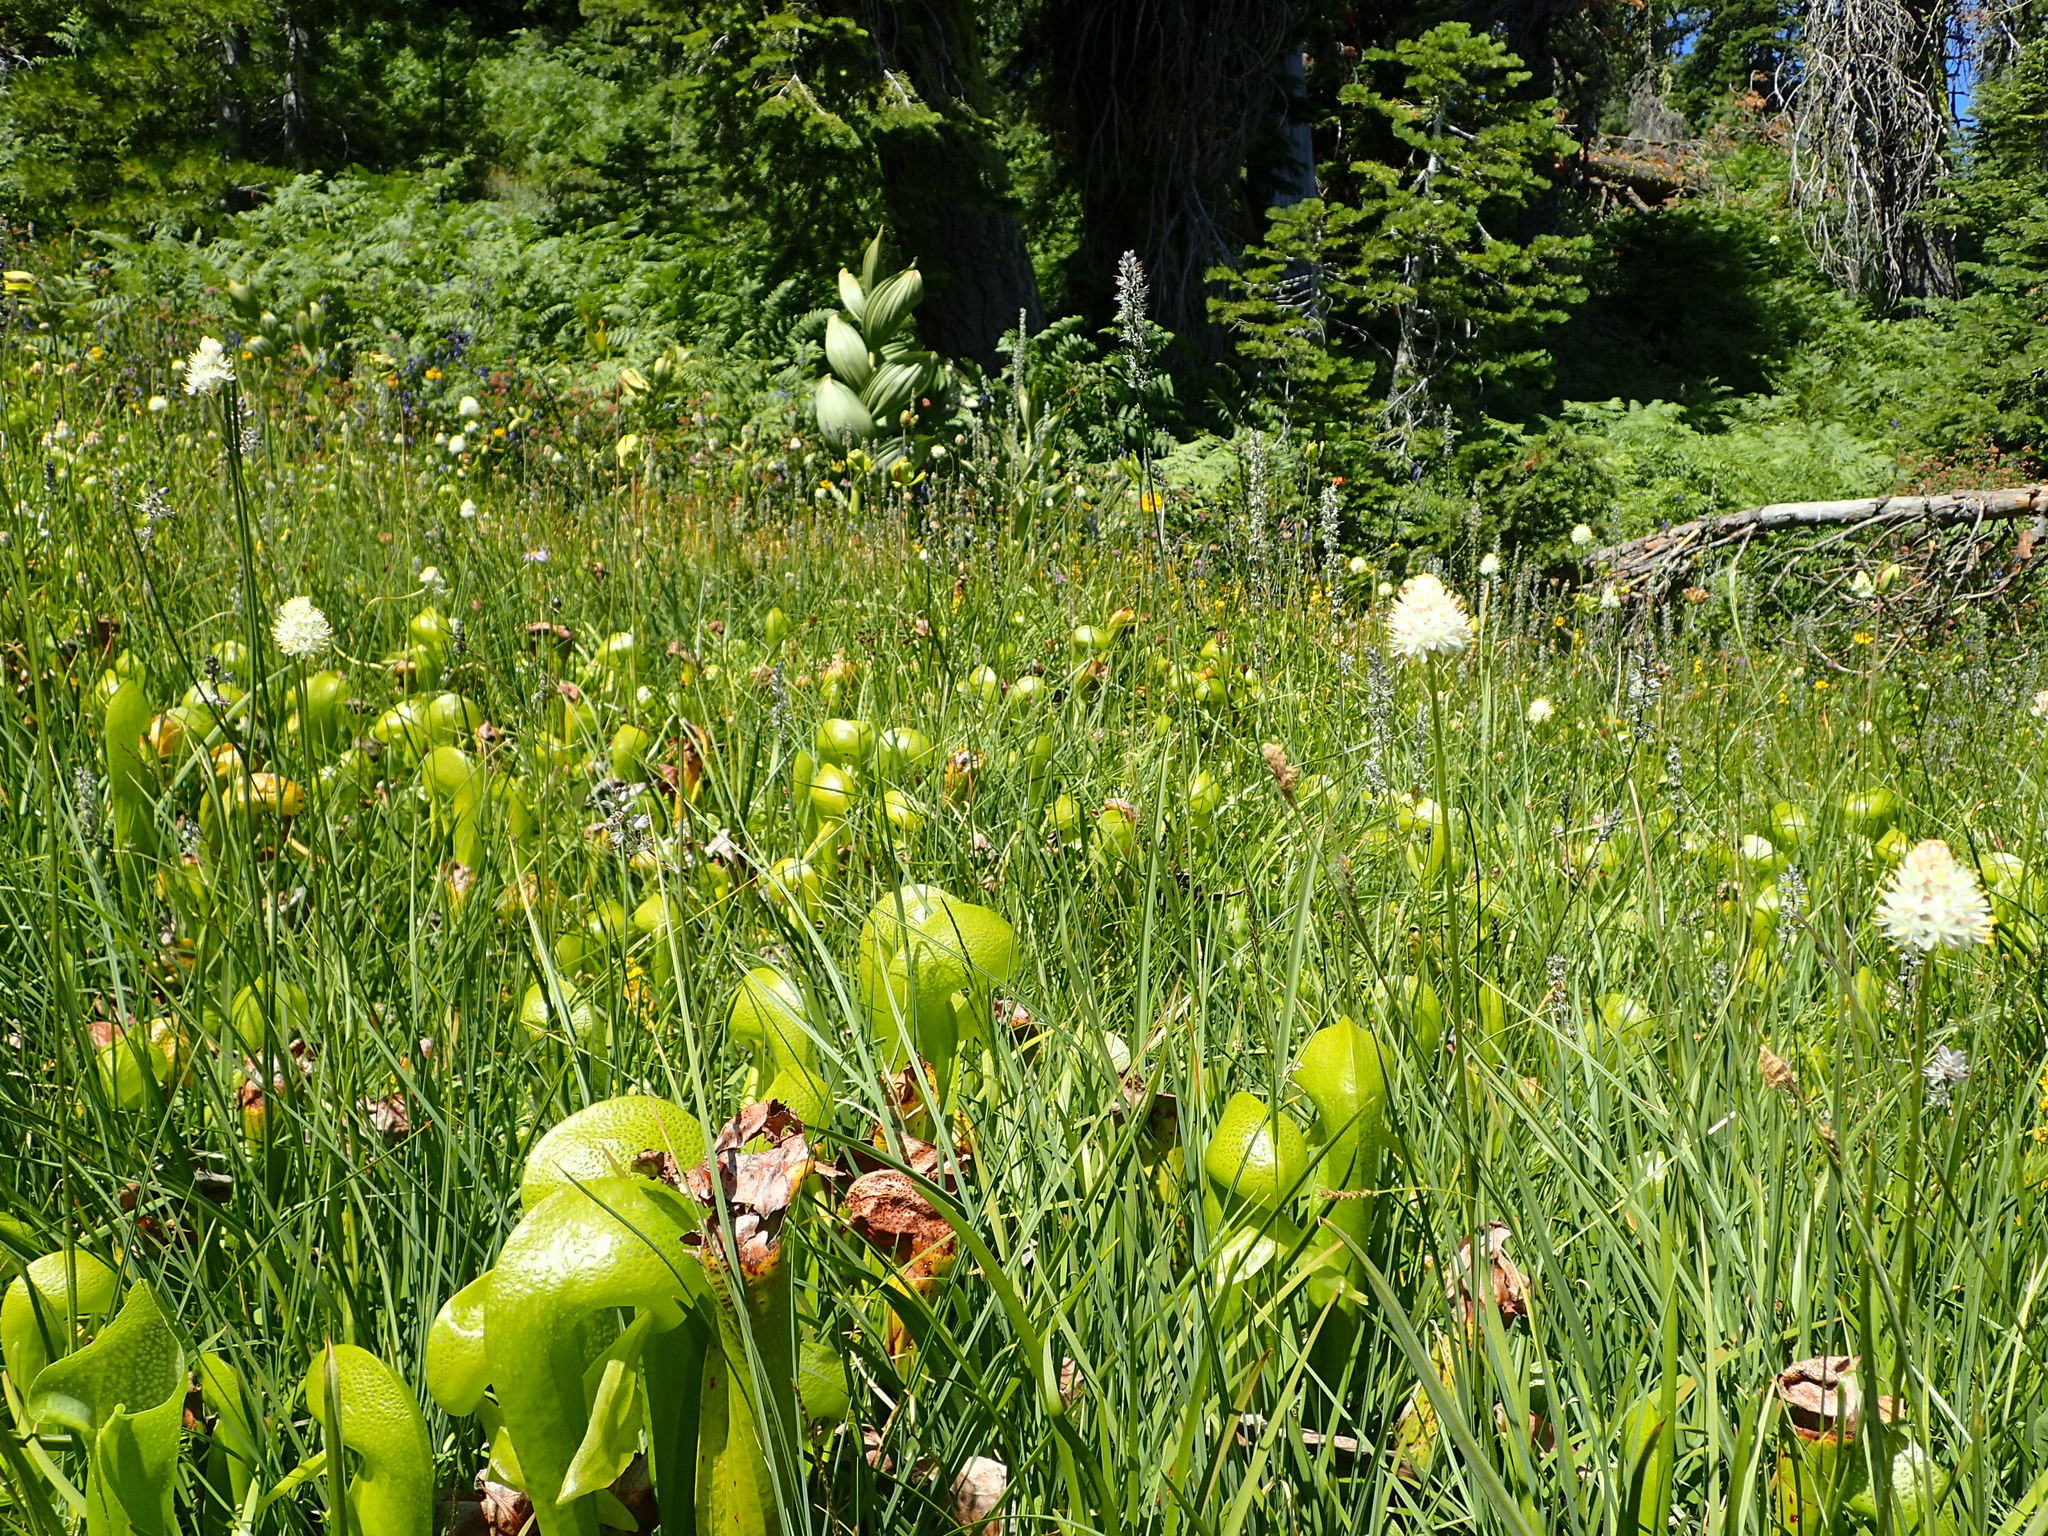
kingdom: Plantae
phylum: Tracheophyta
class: Magnoliopsida
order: Ericales
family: Sarraceniaceae
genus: Darlingtonia
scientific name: Darlingtonia californica
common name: California pitcher plant
